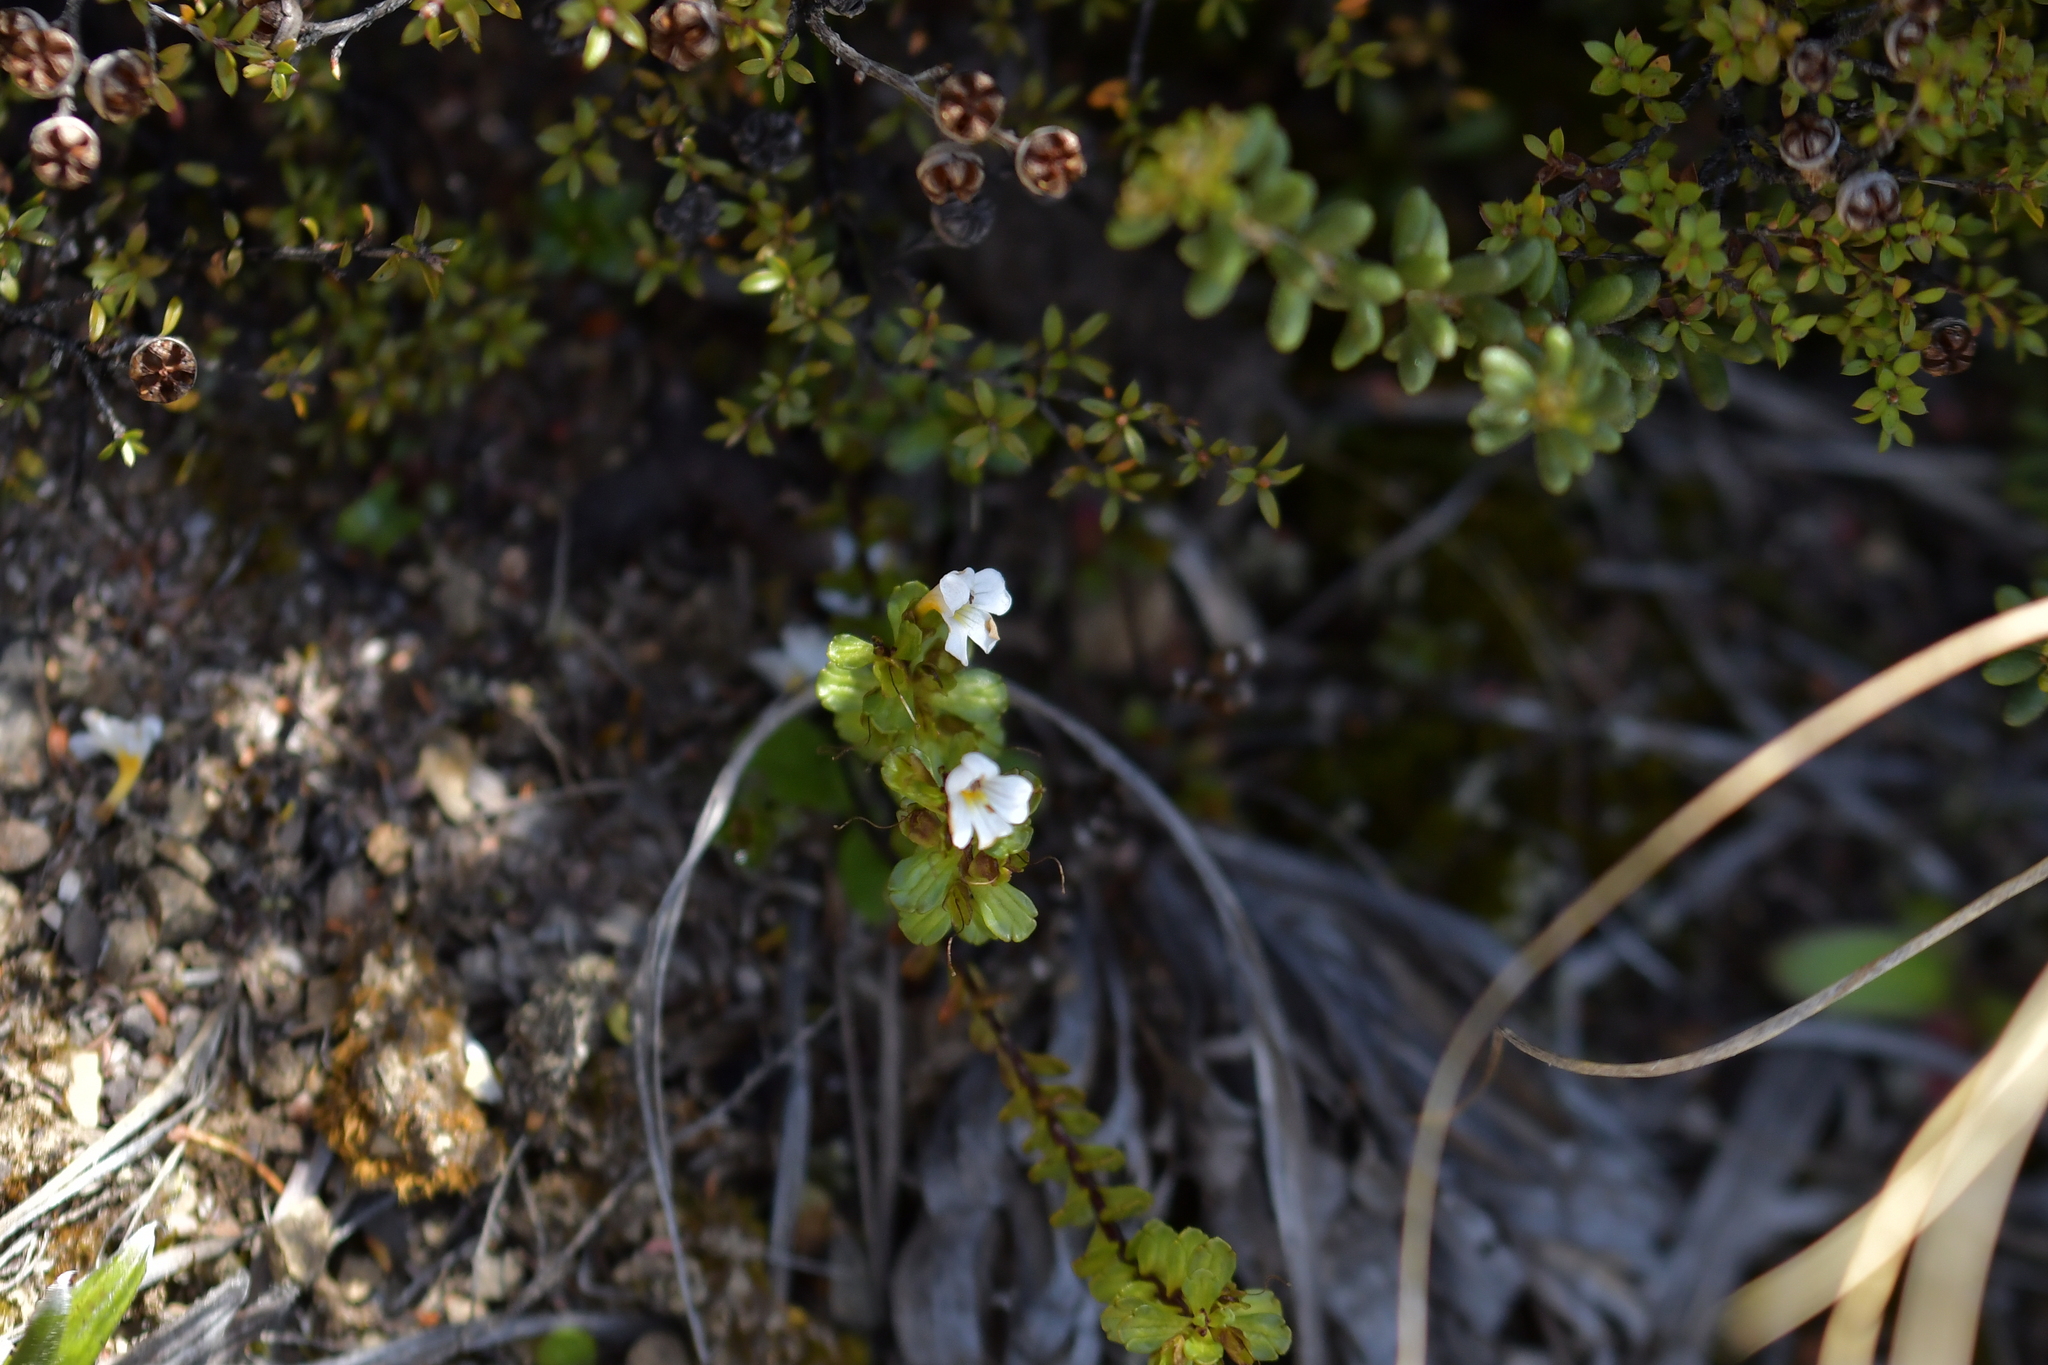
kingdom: Plantae
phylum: Tracheophyta
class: Magnoliopsida
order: Lamiales
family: Orobanchaceae
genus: Euphrasia
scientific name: Euphrasia monroi
